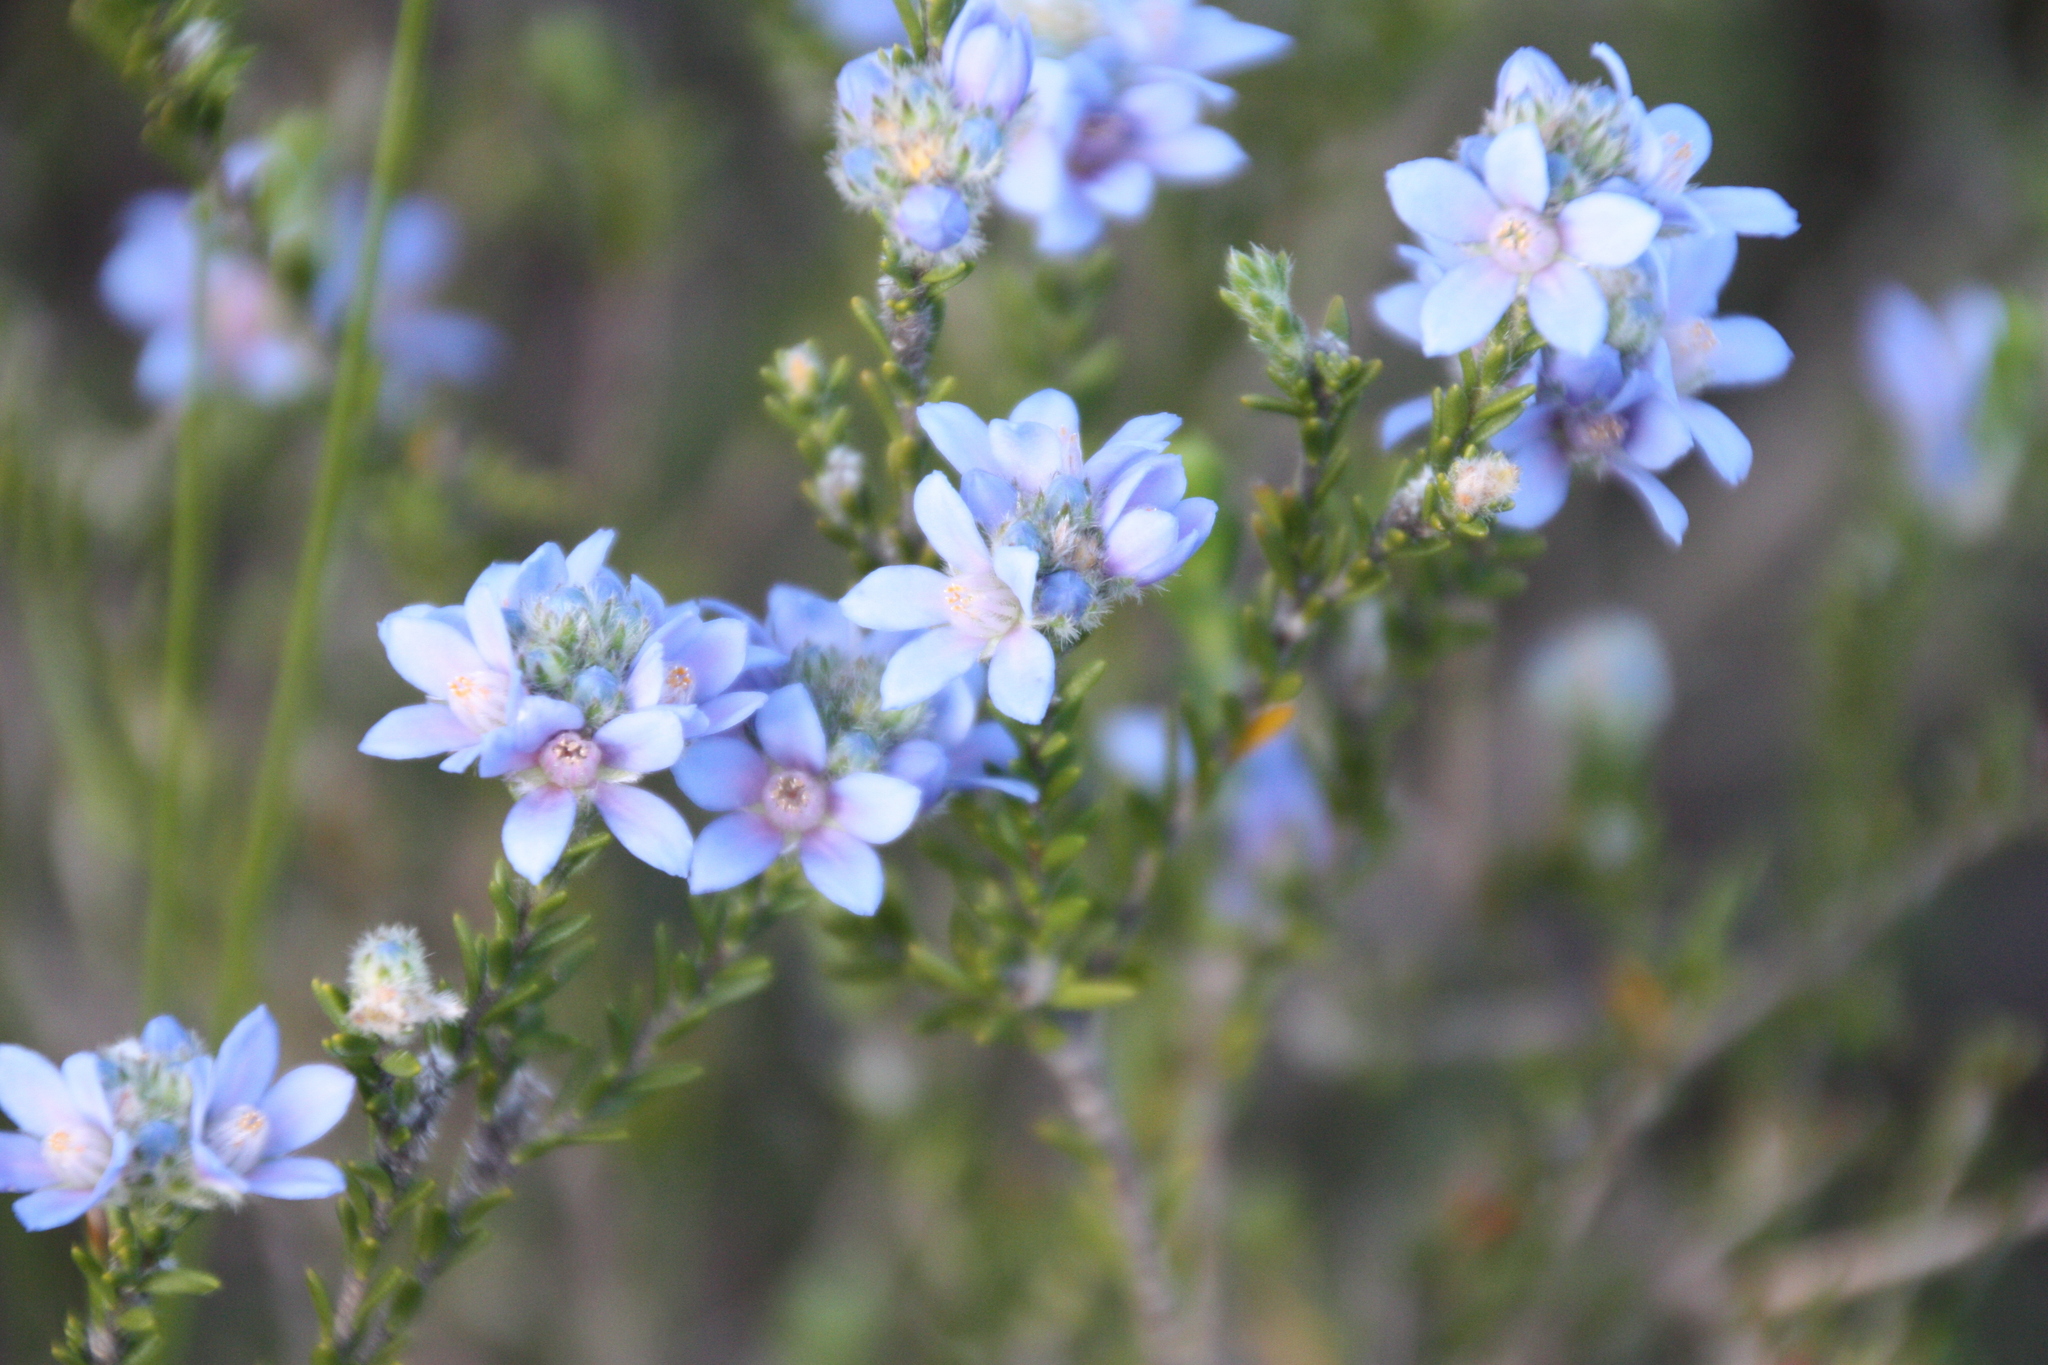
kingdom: Plantae
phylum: Tracheophyta
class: Magnoliopsida
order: Sapindales
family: Rutaceae
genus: Philotheca
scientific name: Philotheca nodiflora
